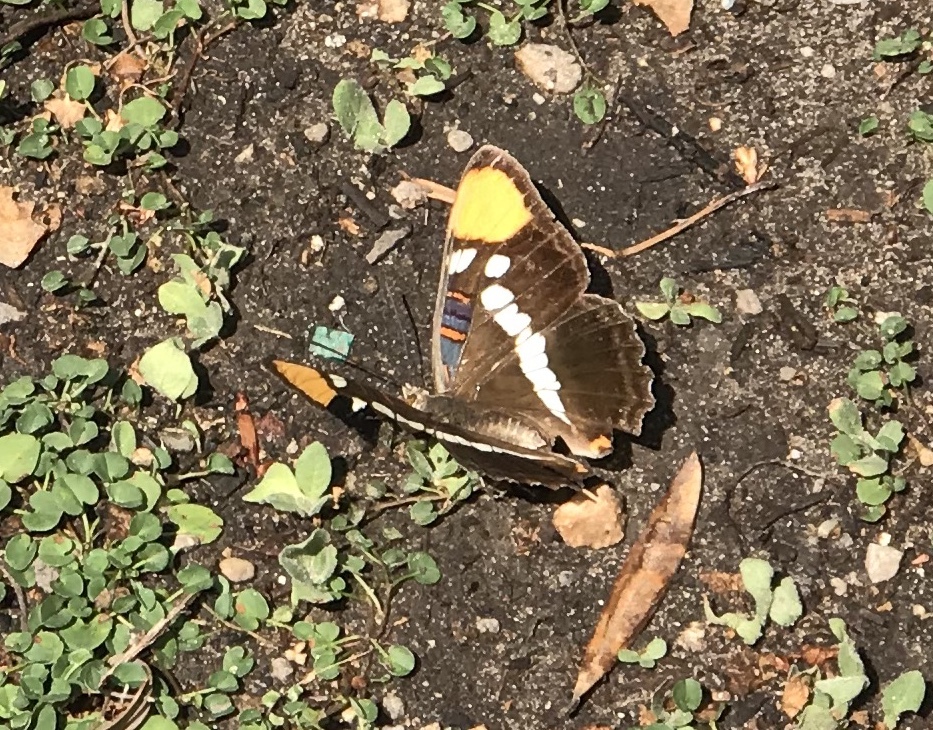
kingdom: Animalia
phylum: Arthropoda
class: Insecta
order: Lepidoptera
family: Nymphalidae
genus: Limenitis
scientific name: Limenitis bredowii
